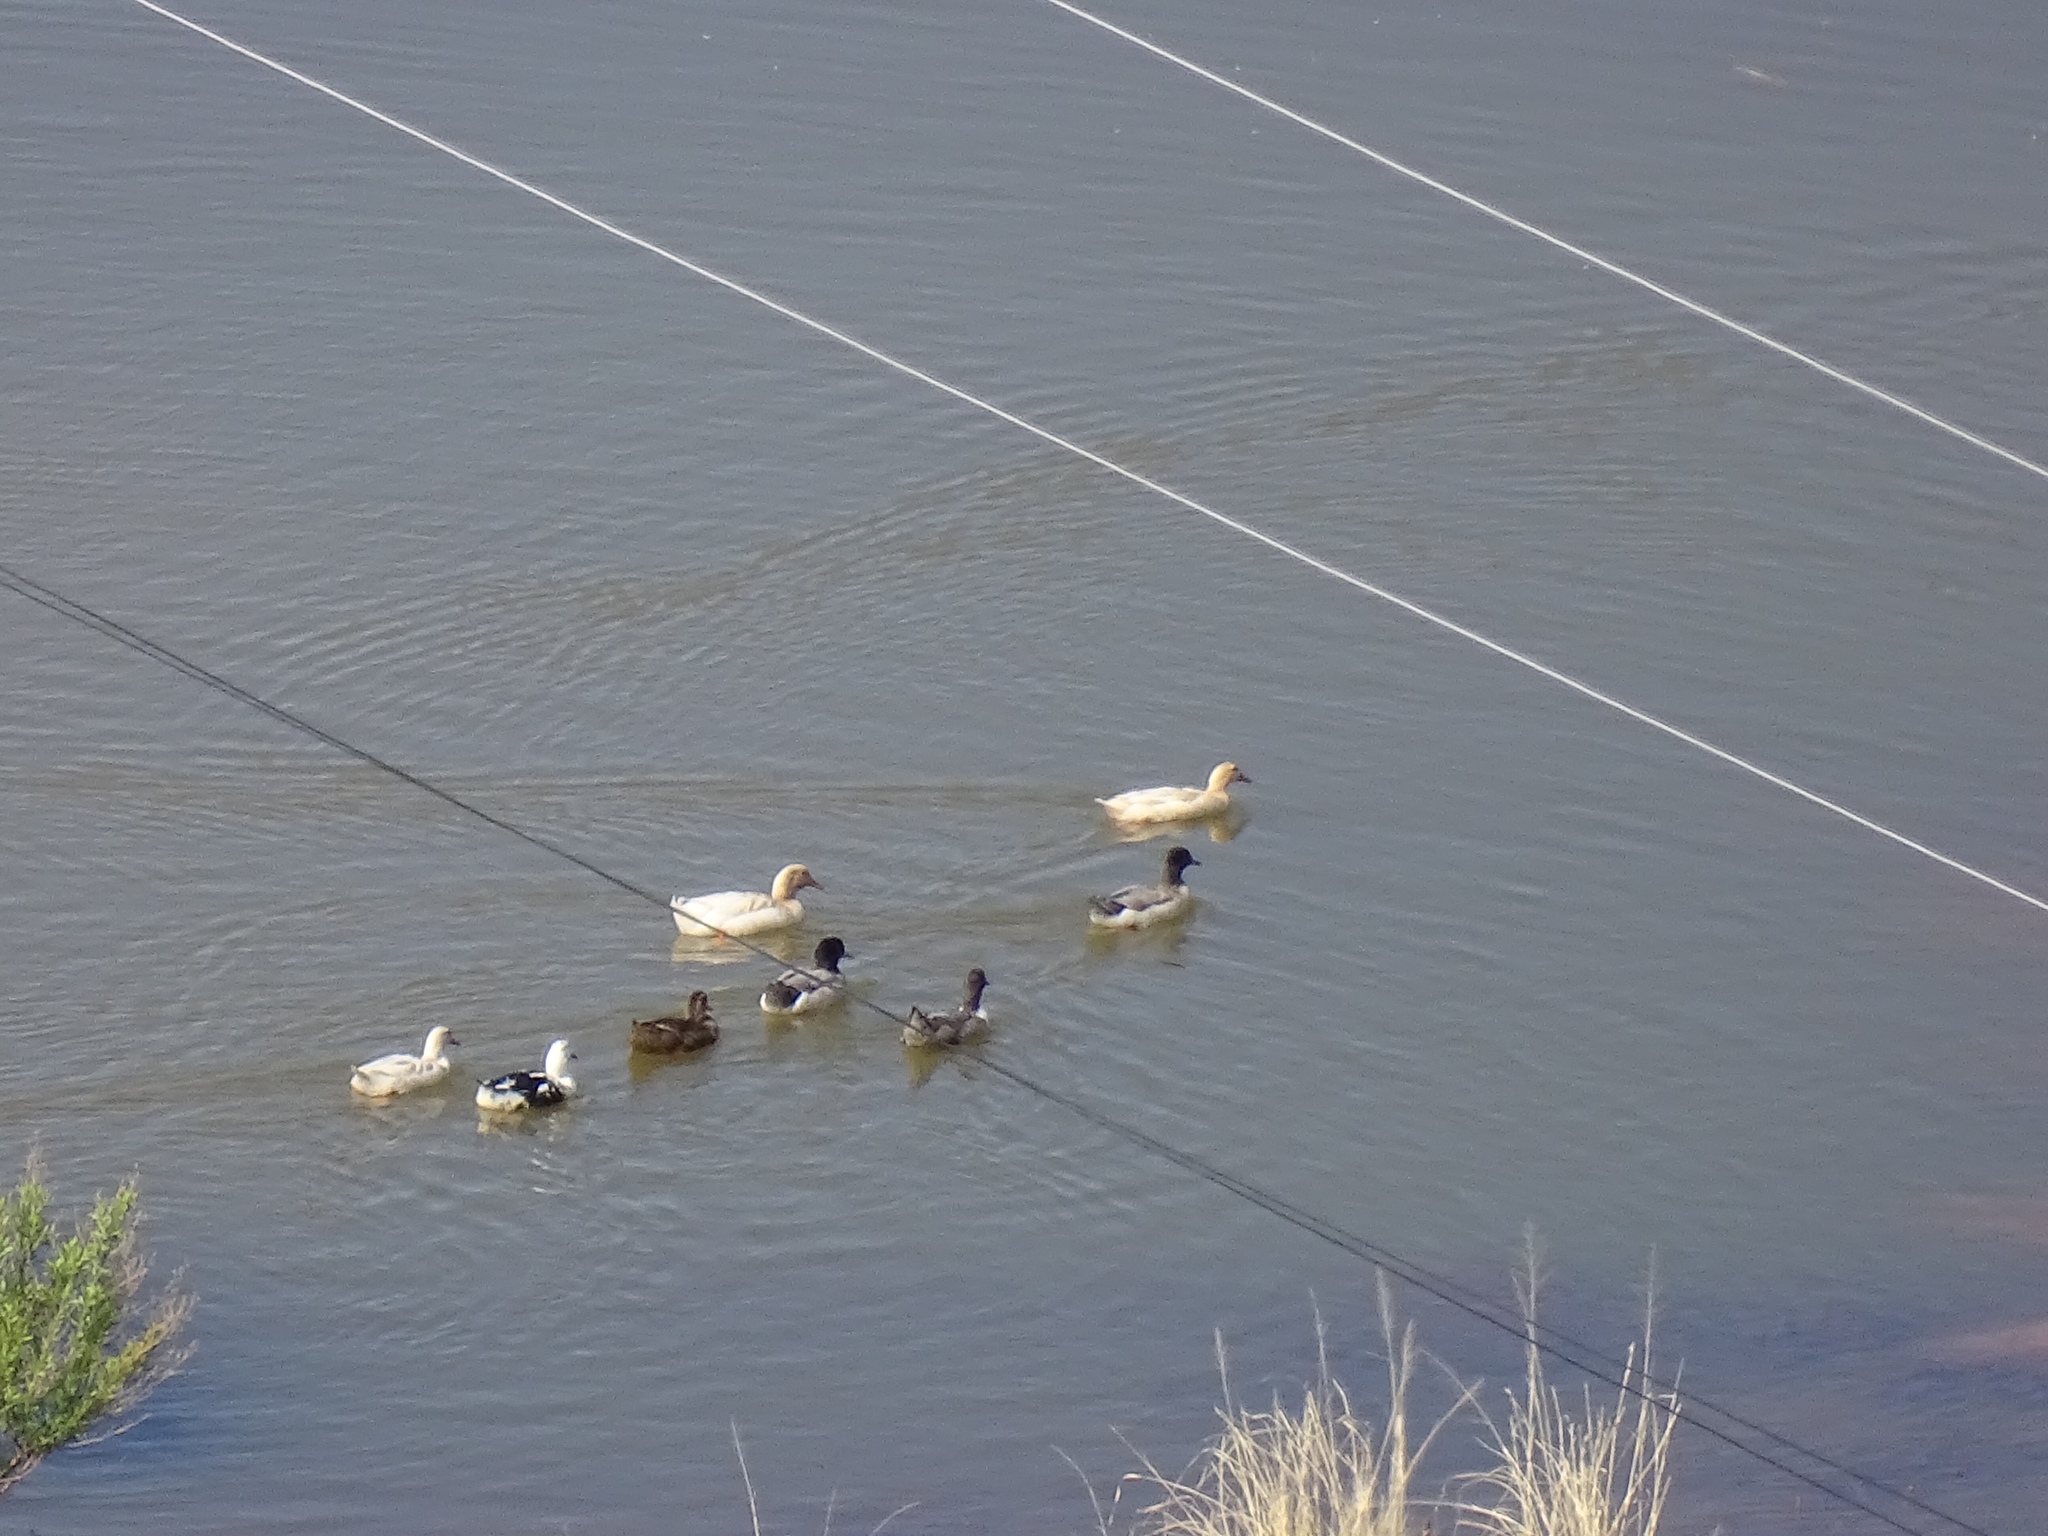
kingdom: Animalia
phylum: Chordata
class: Aves
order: Anseriformes
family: Anatidae
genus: Anas
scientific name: Anas platyrhynchos
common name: Mallard
